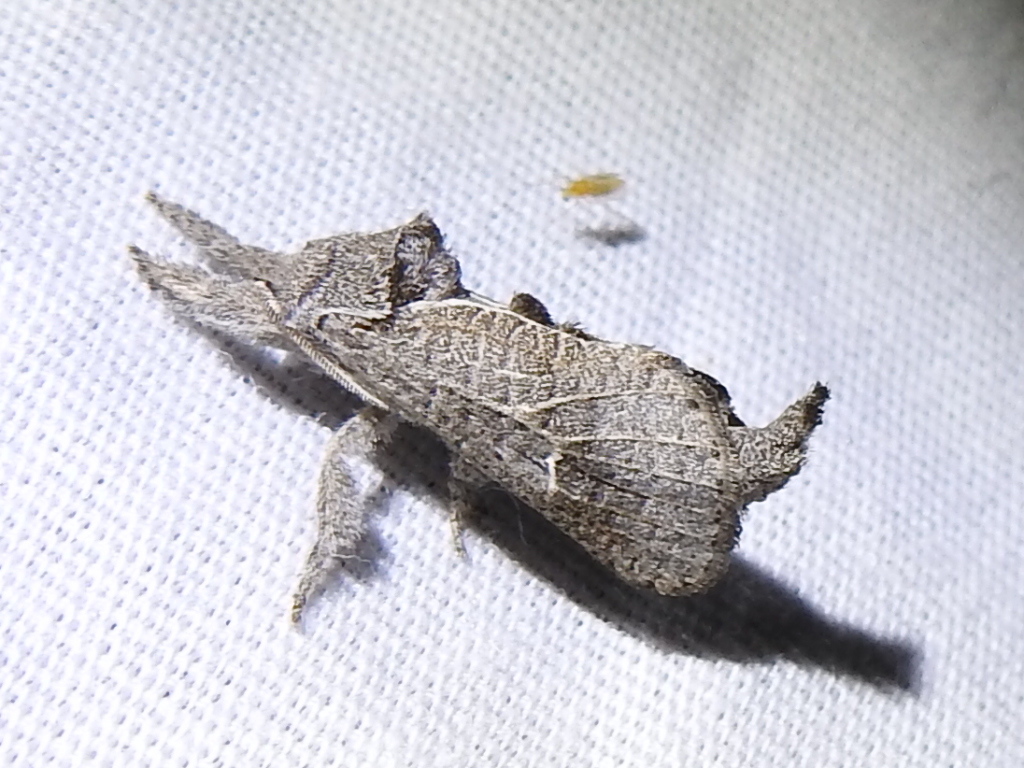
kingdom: Animalia
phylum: Arthropoda
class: Insecta
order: Lepidoptera
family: Cossidae
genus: Givira
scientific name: Givira anna
